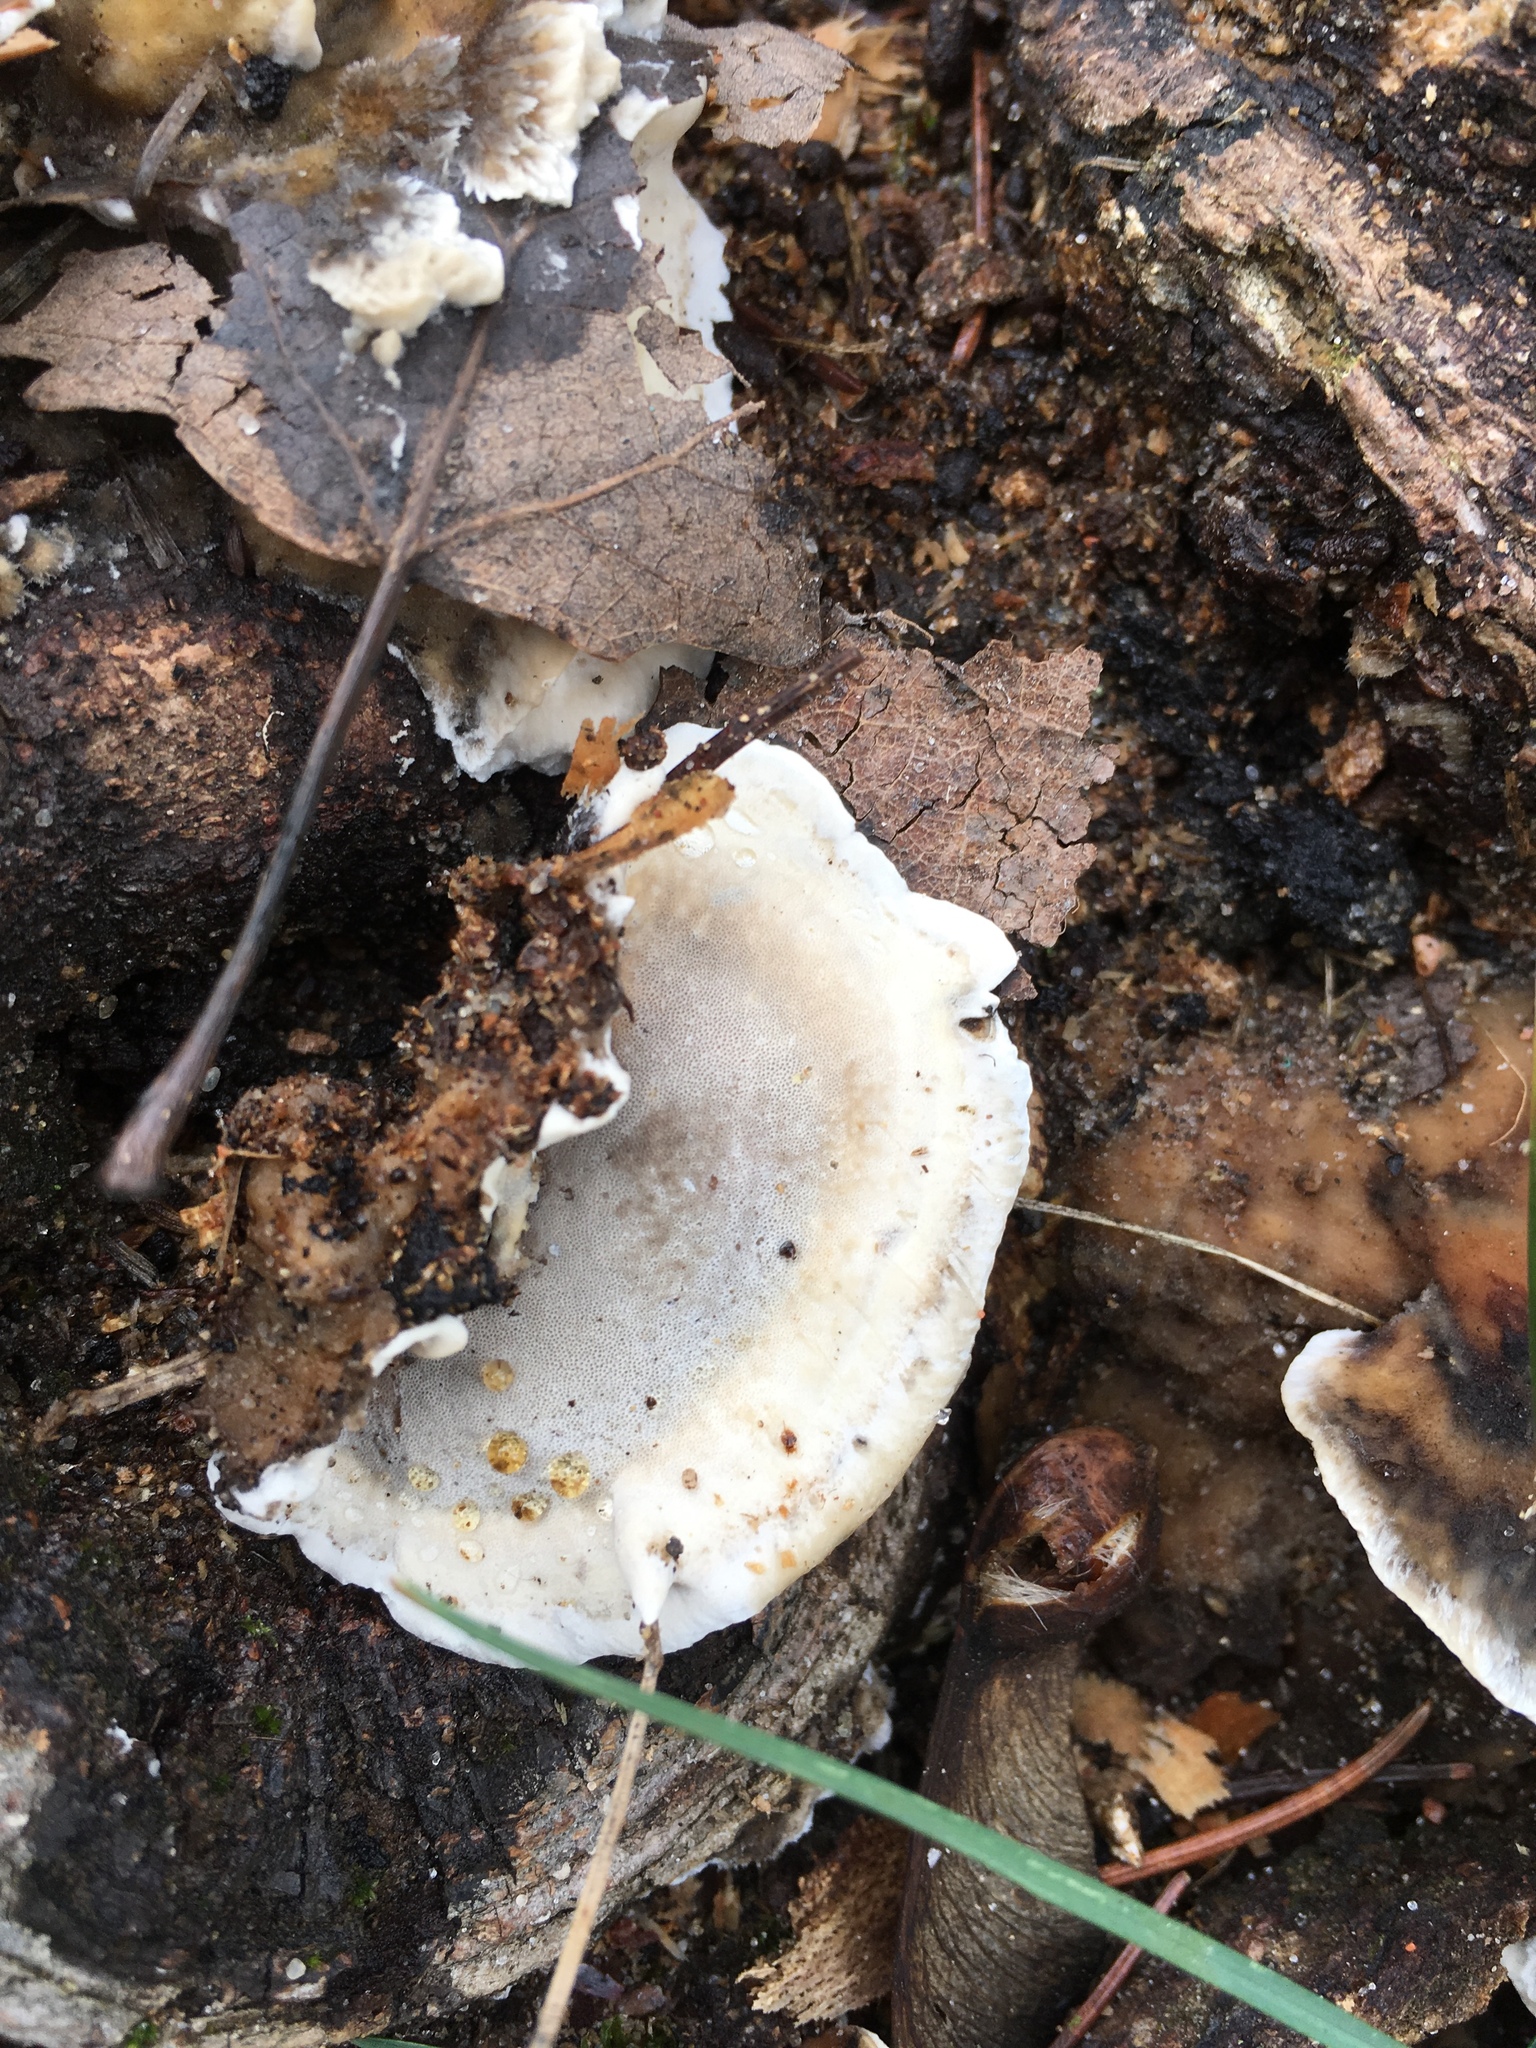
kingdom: Fungi
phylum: Basidiomycota
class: Agaricomycetes
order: Polyporales
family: Phanerochaetaceae
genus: Bjerkandera
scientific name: Bjerkandera adusta
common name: Smoky bracket
